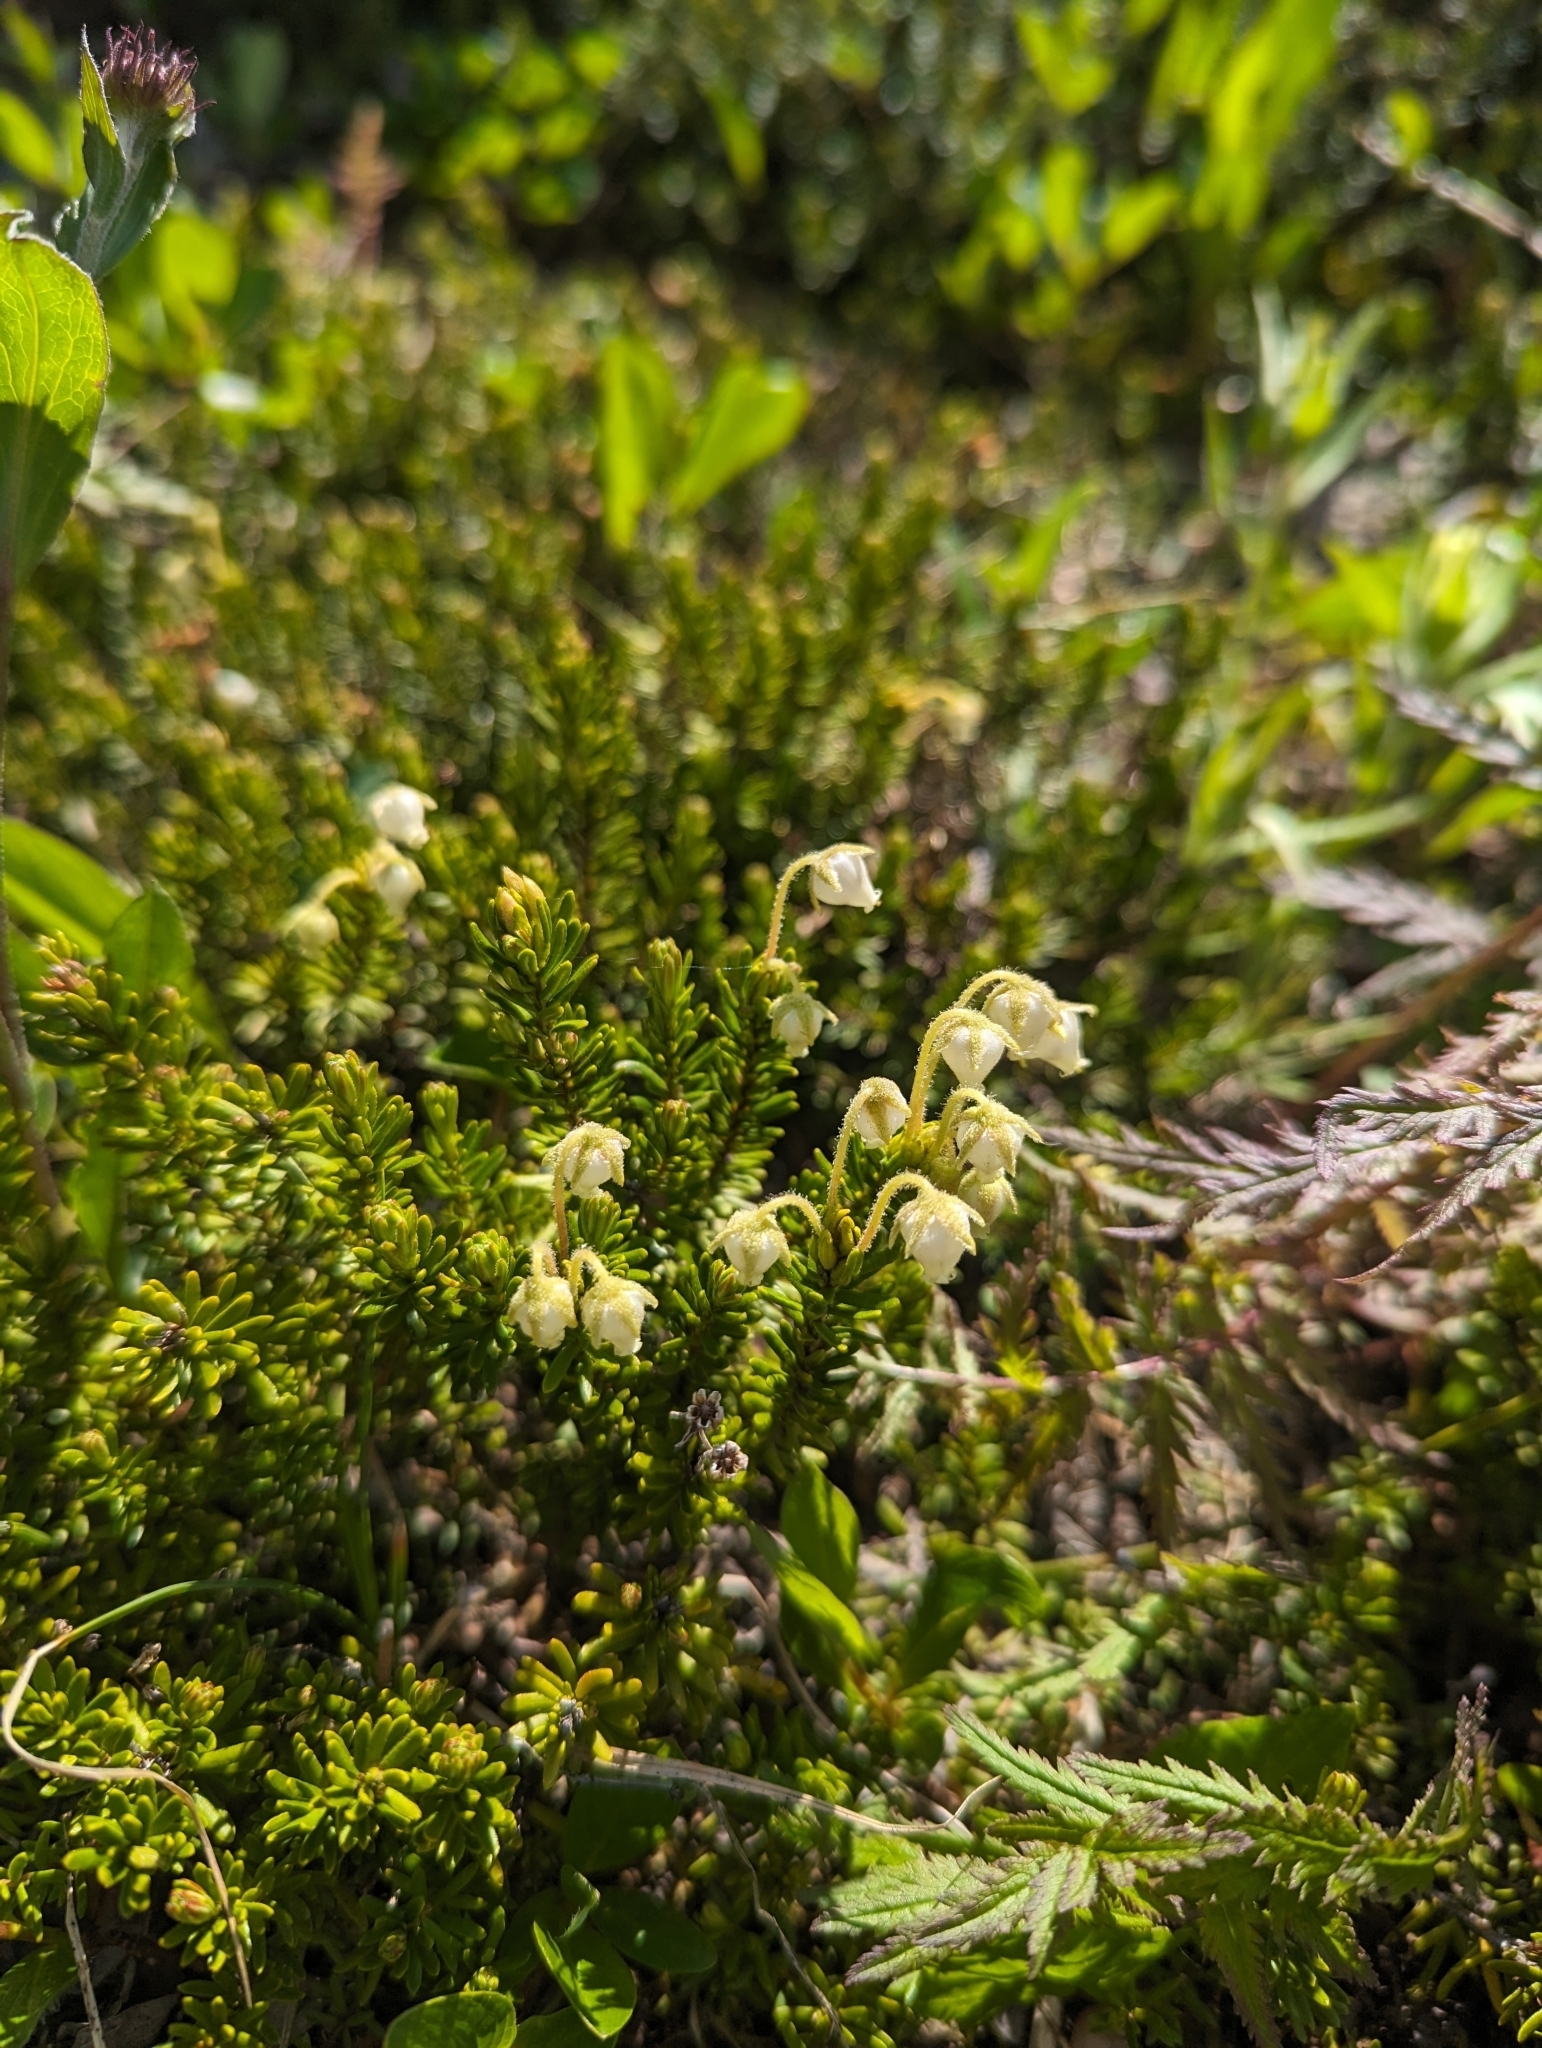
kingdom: Plantae
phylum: Tracheophyta
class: Magnoliopsida
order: Ericales
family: Ericaceae
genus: Phyllodoce
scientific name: Phyllodoce glanduliflora
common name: Cream mountain heather
